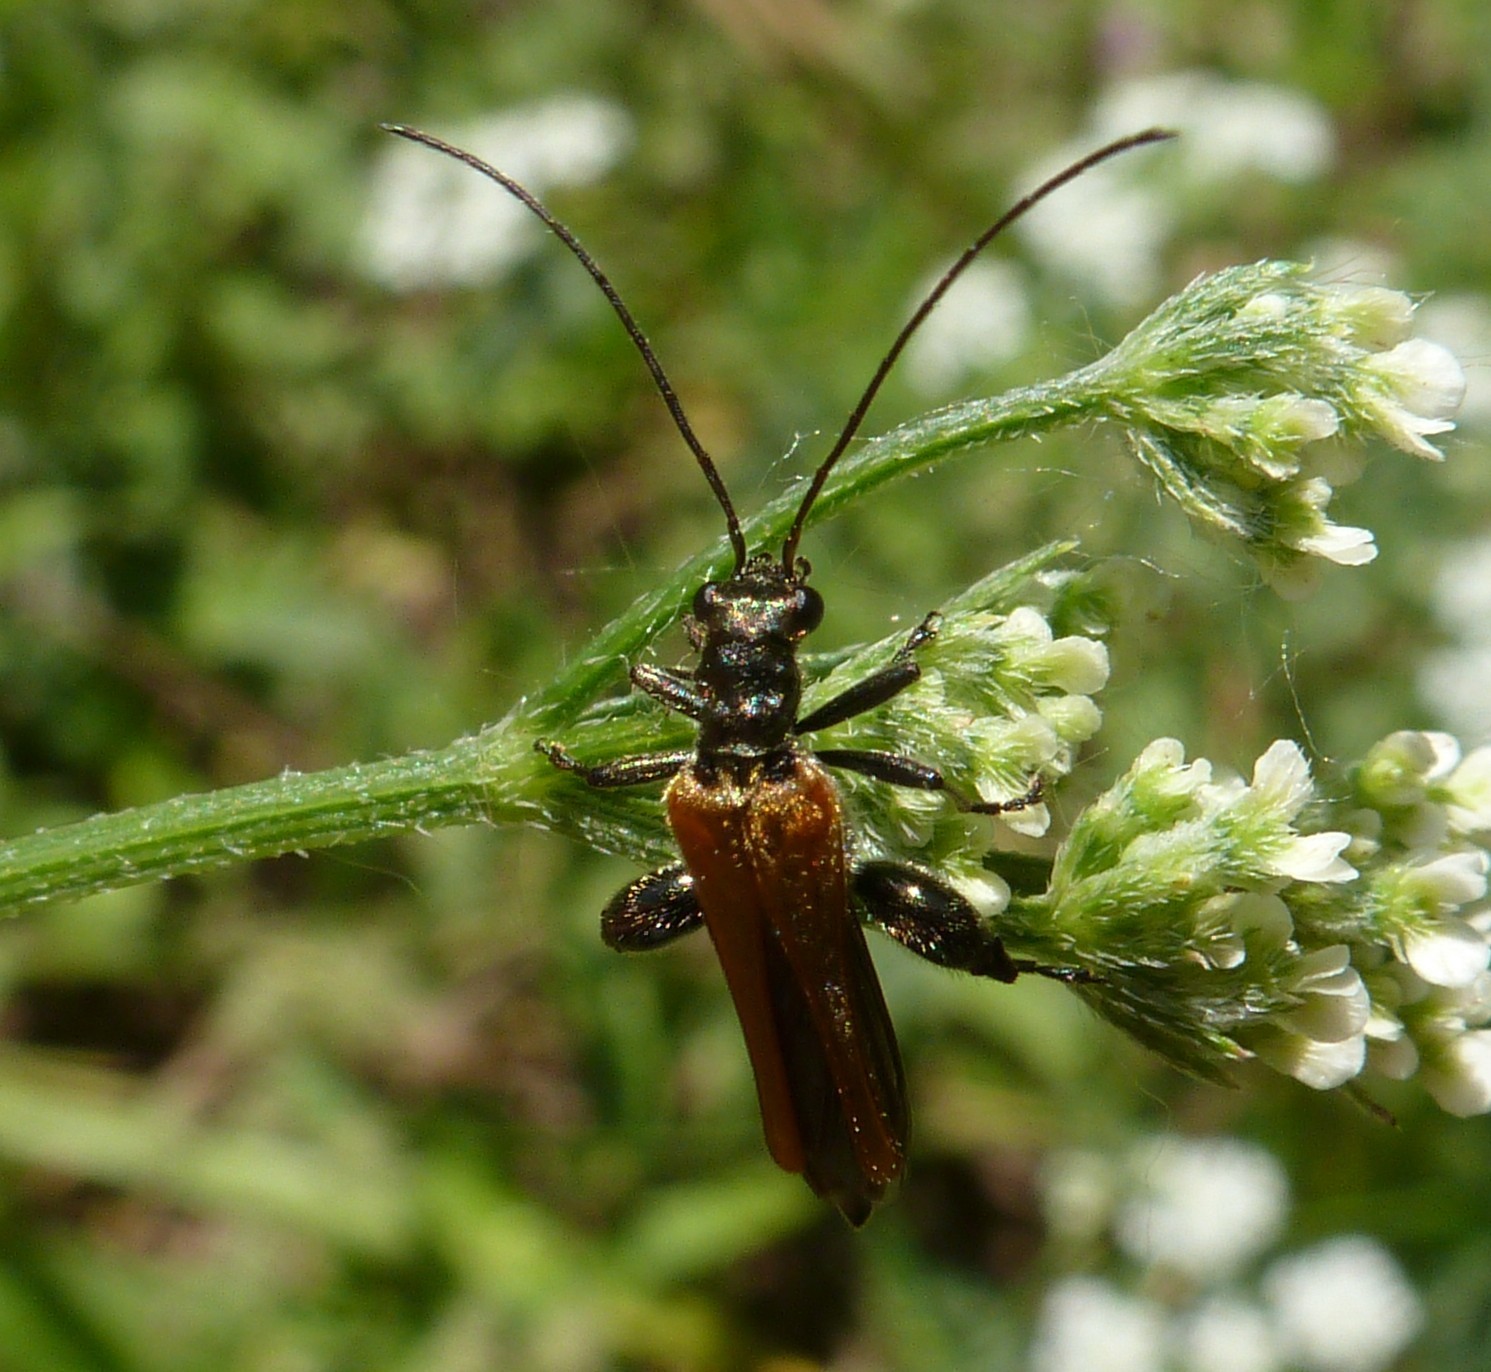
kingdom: Animalia
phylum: Arthropoda
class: Insecta
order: Coleoptera
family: Oedemeridae
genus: Oedemera
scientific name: Oedemera femorata
